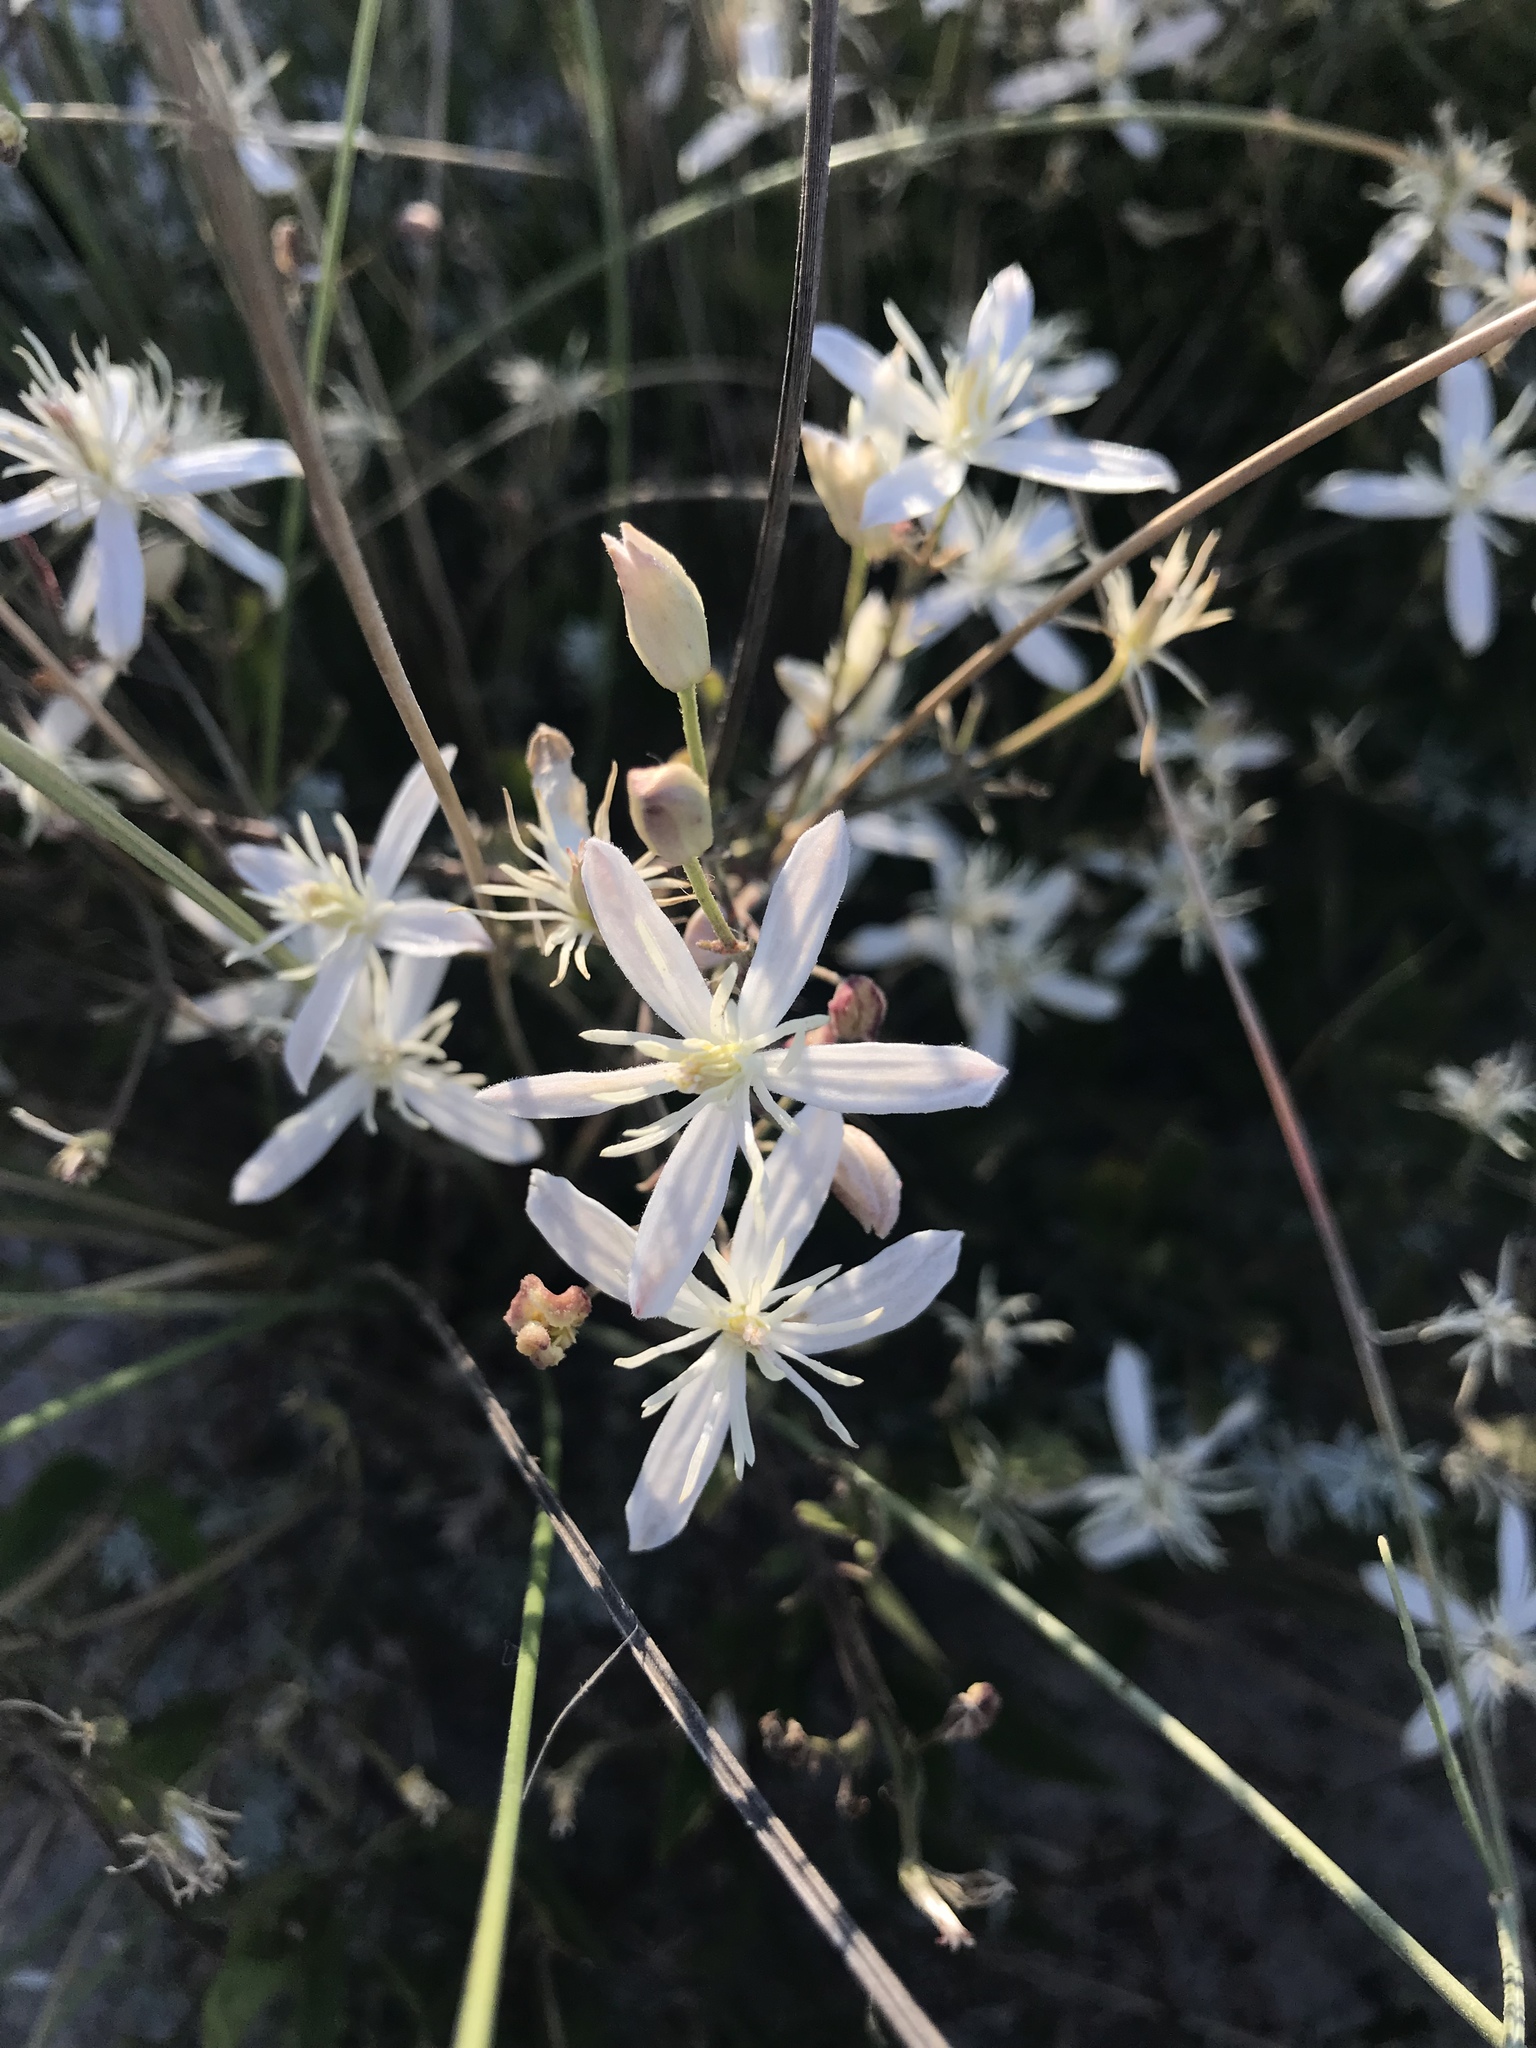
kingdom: Plantae
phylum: Tracheophyta
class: Magnoliopsida
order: Ranunculales
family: Ranunculaceae
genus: Clematis
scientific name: Clematis flammula
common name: Virgin's-bower
